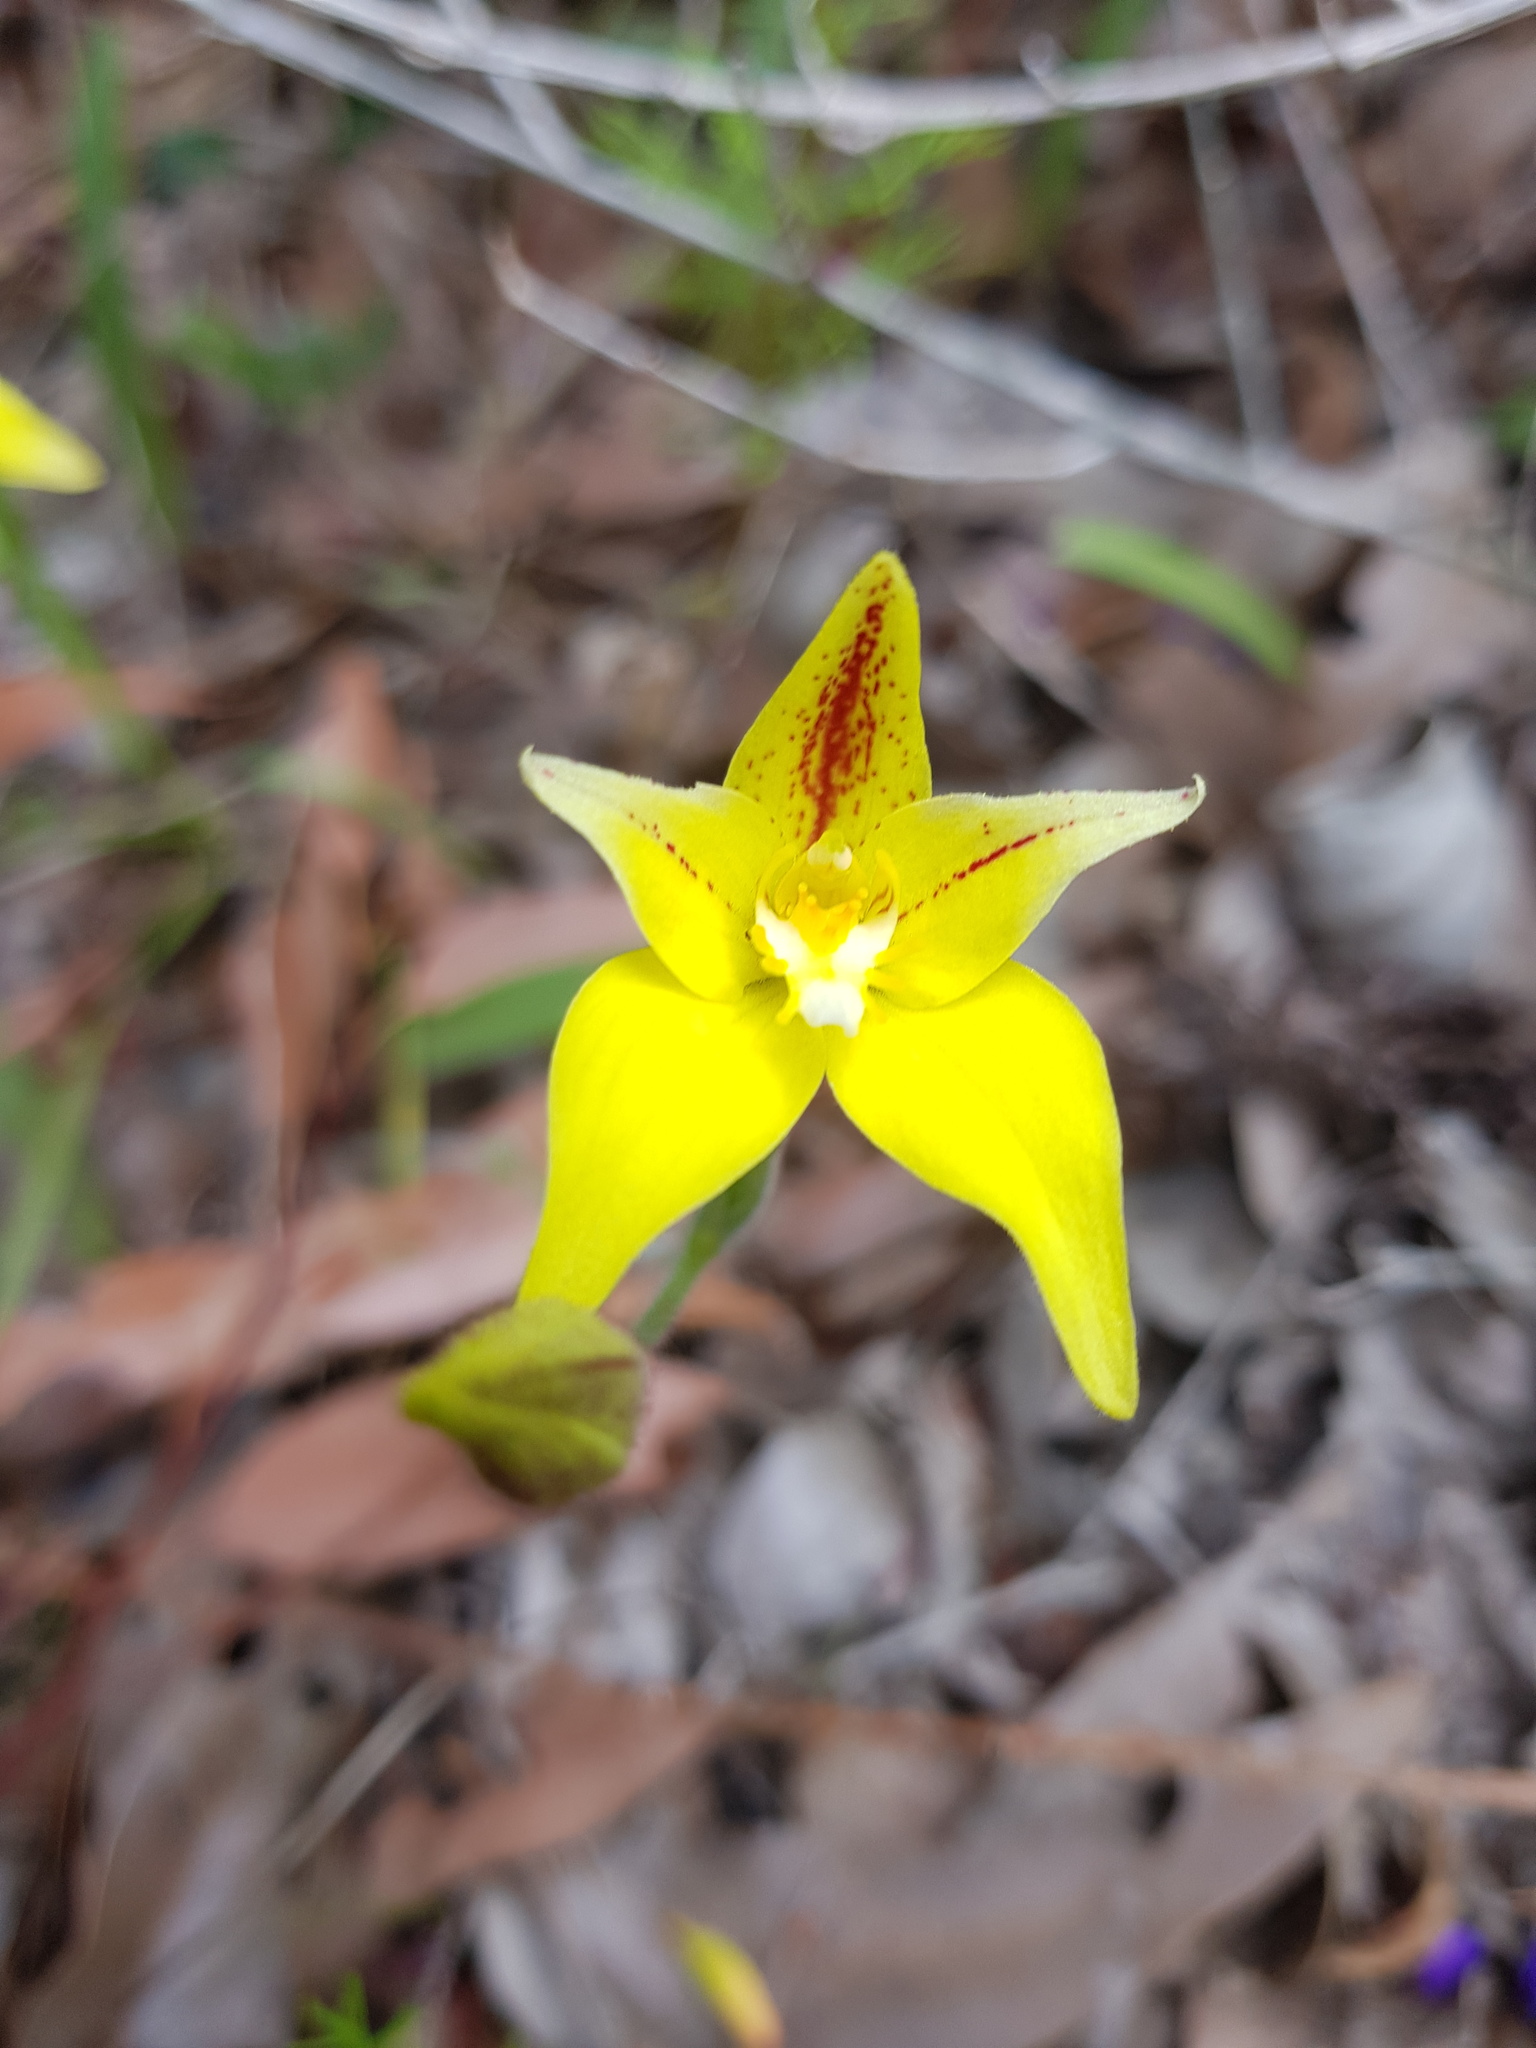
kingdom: Plantae
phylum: Tracheophyta
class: Liliopsida
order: Asparagales
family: Orchidaceae
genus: Caladenia
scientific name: Caladenia flava
